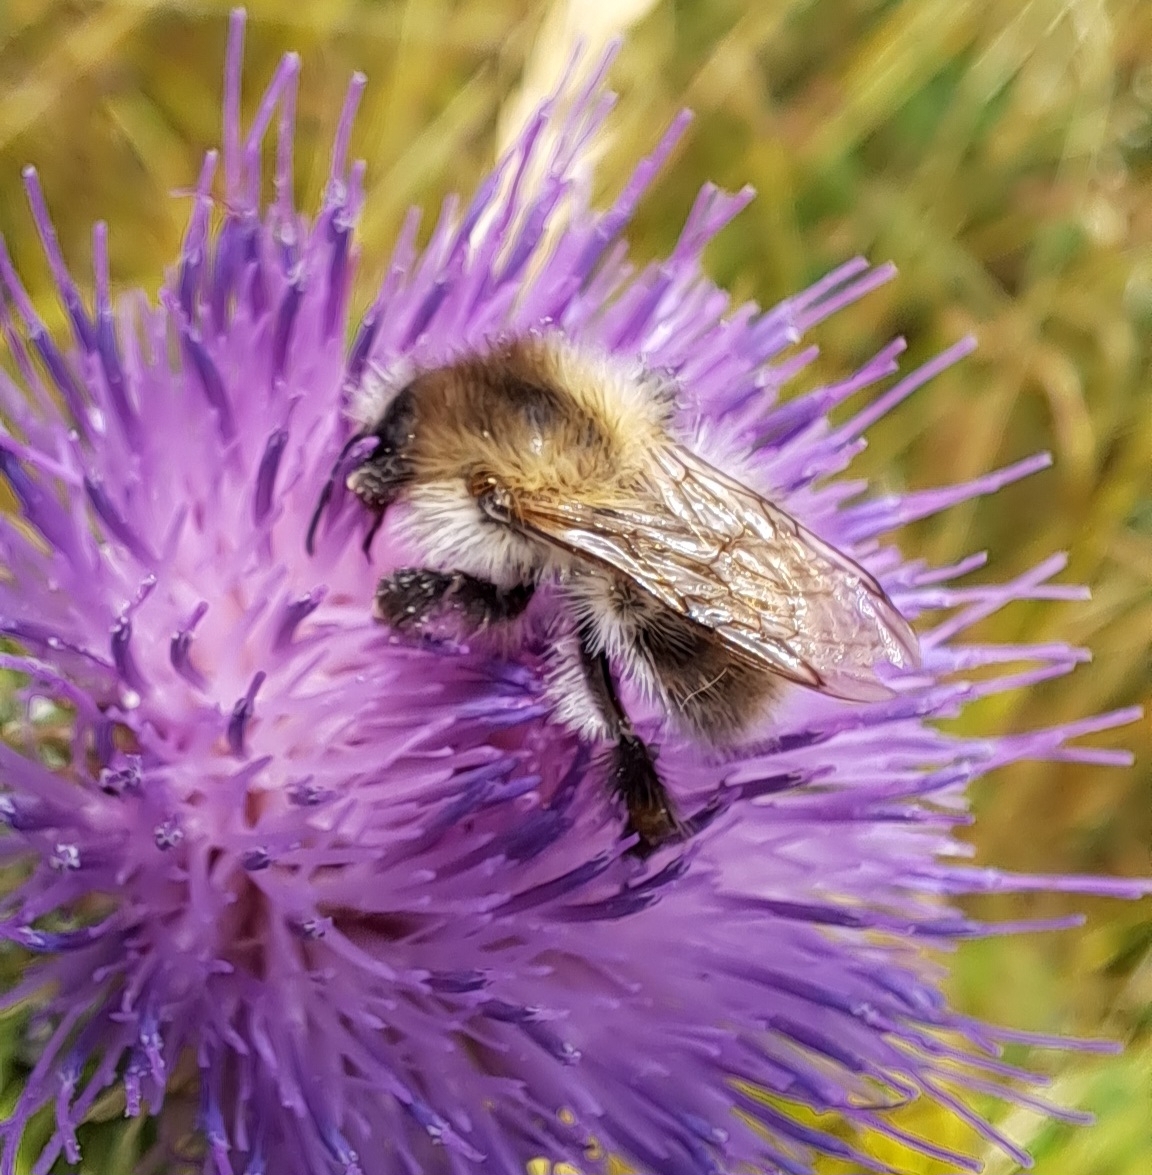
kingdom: Animalia
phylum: Arthropoda
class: Insecta
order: Hymenoptera
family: Apidae
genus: Bombus
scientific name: Bombus pascuorum
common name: Common carder bee
